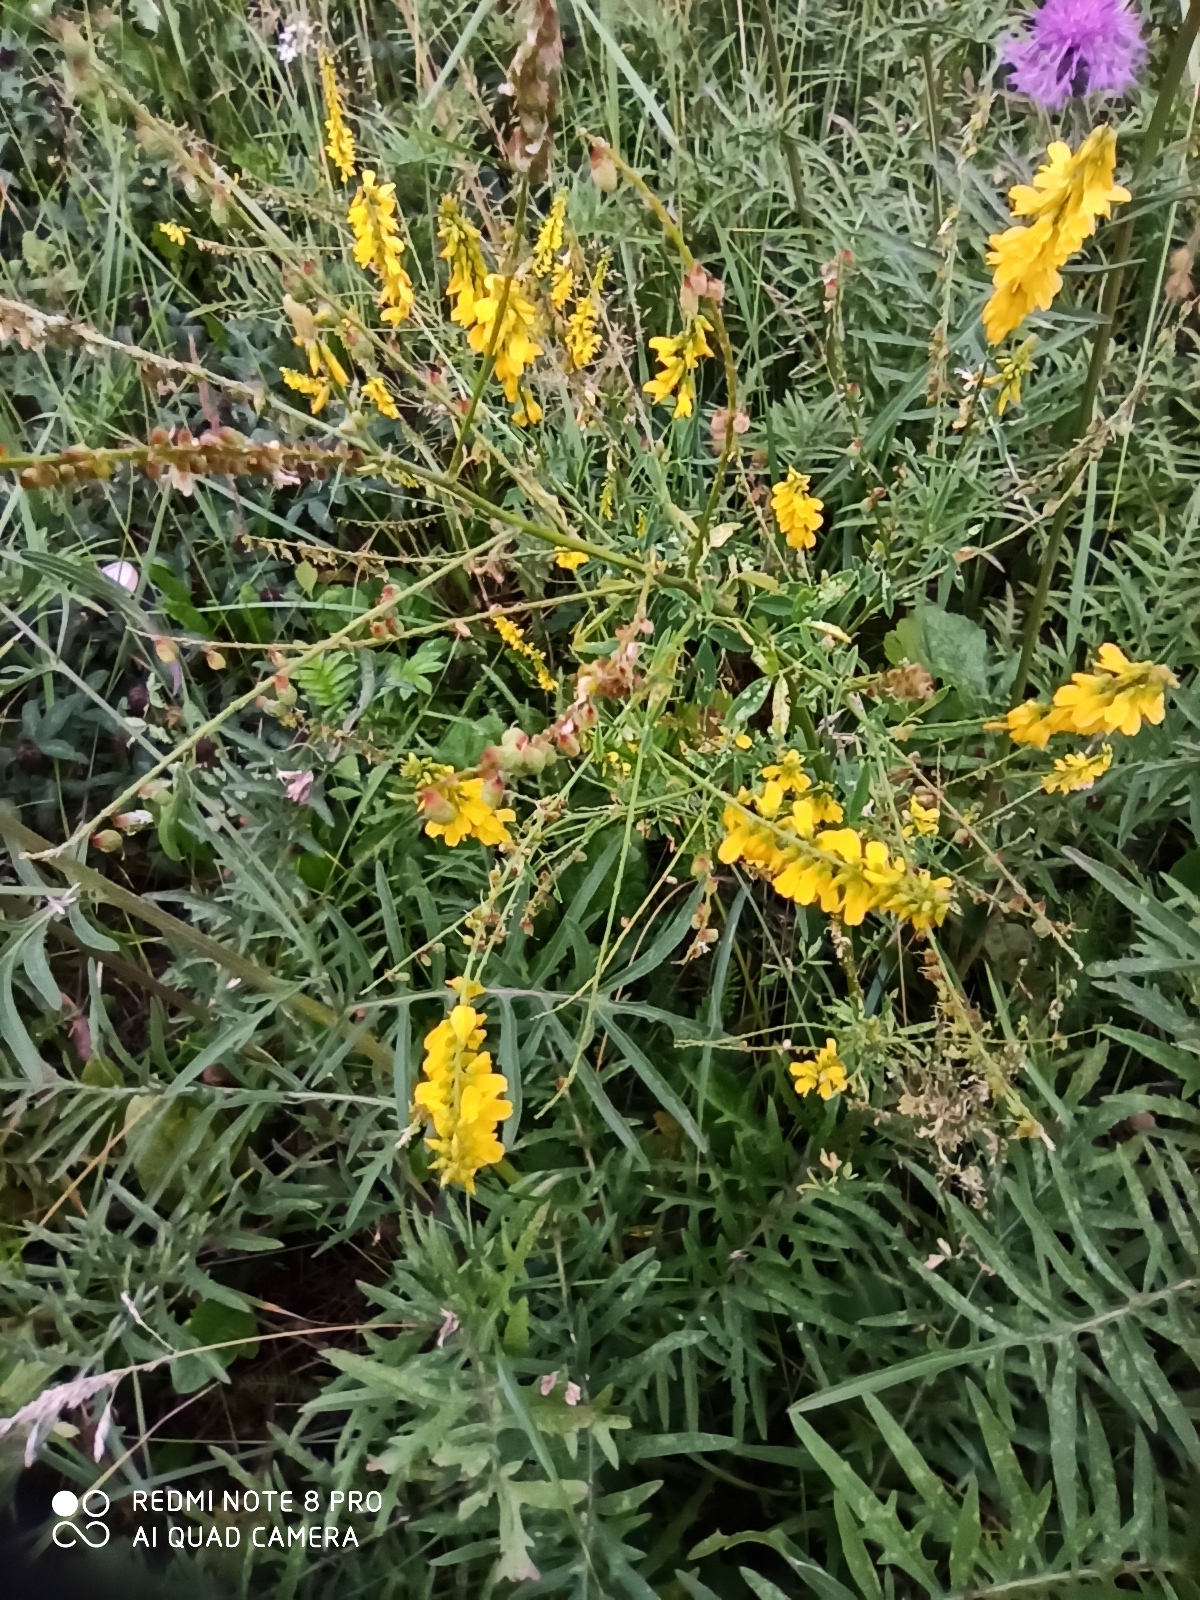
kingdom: Plantae
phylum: Tracheophyta
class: Magnoliopsida
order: Fabales
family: Fabaceae
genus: Melilotus
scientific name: Melilotus officinalis
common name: Sweetclover
